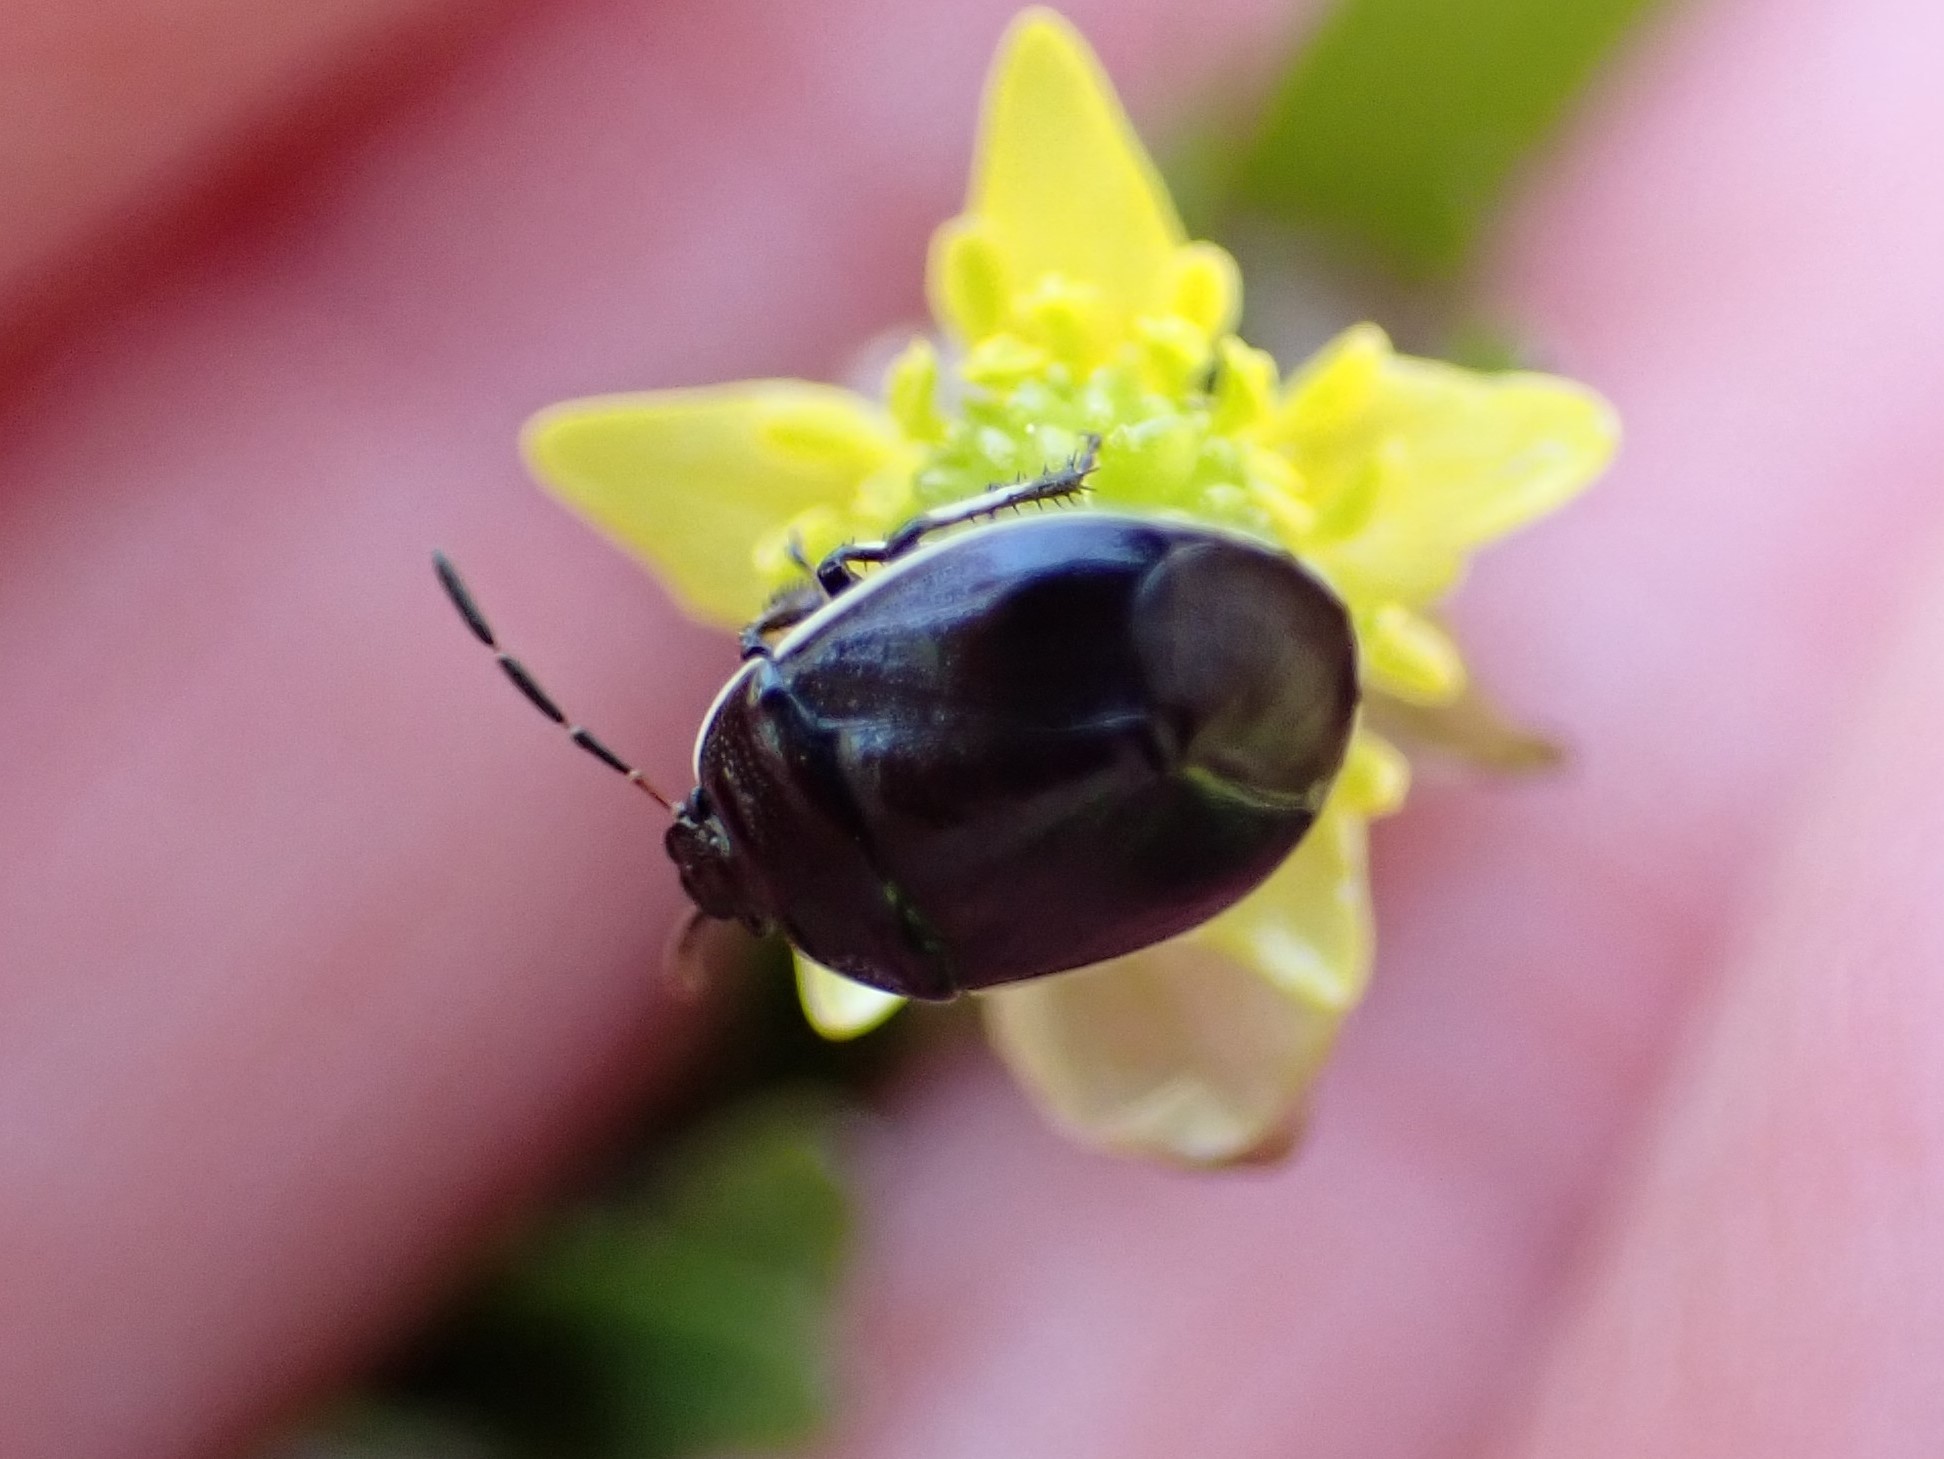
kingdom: Animalia
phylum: Arthropoda
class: Insecta
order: Hemiptera
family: Cydnidae
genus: Sehirus
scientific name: Sehirus cinctus
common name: White-margined burrower bug
